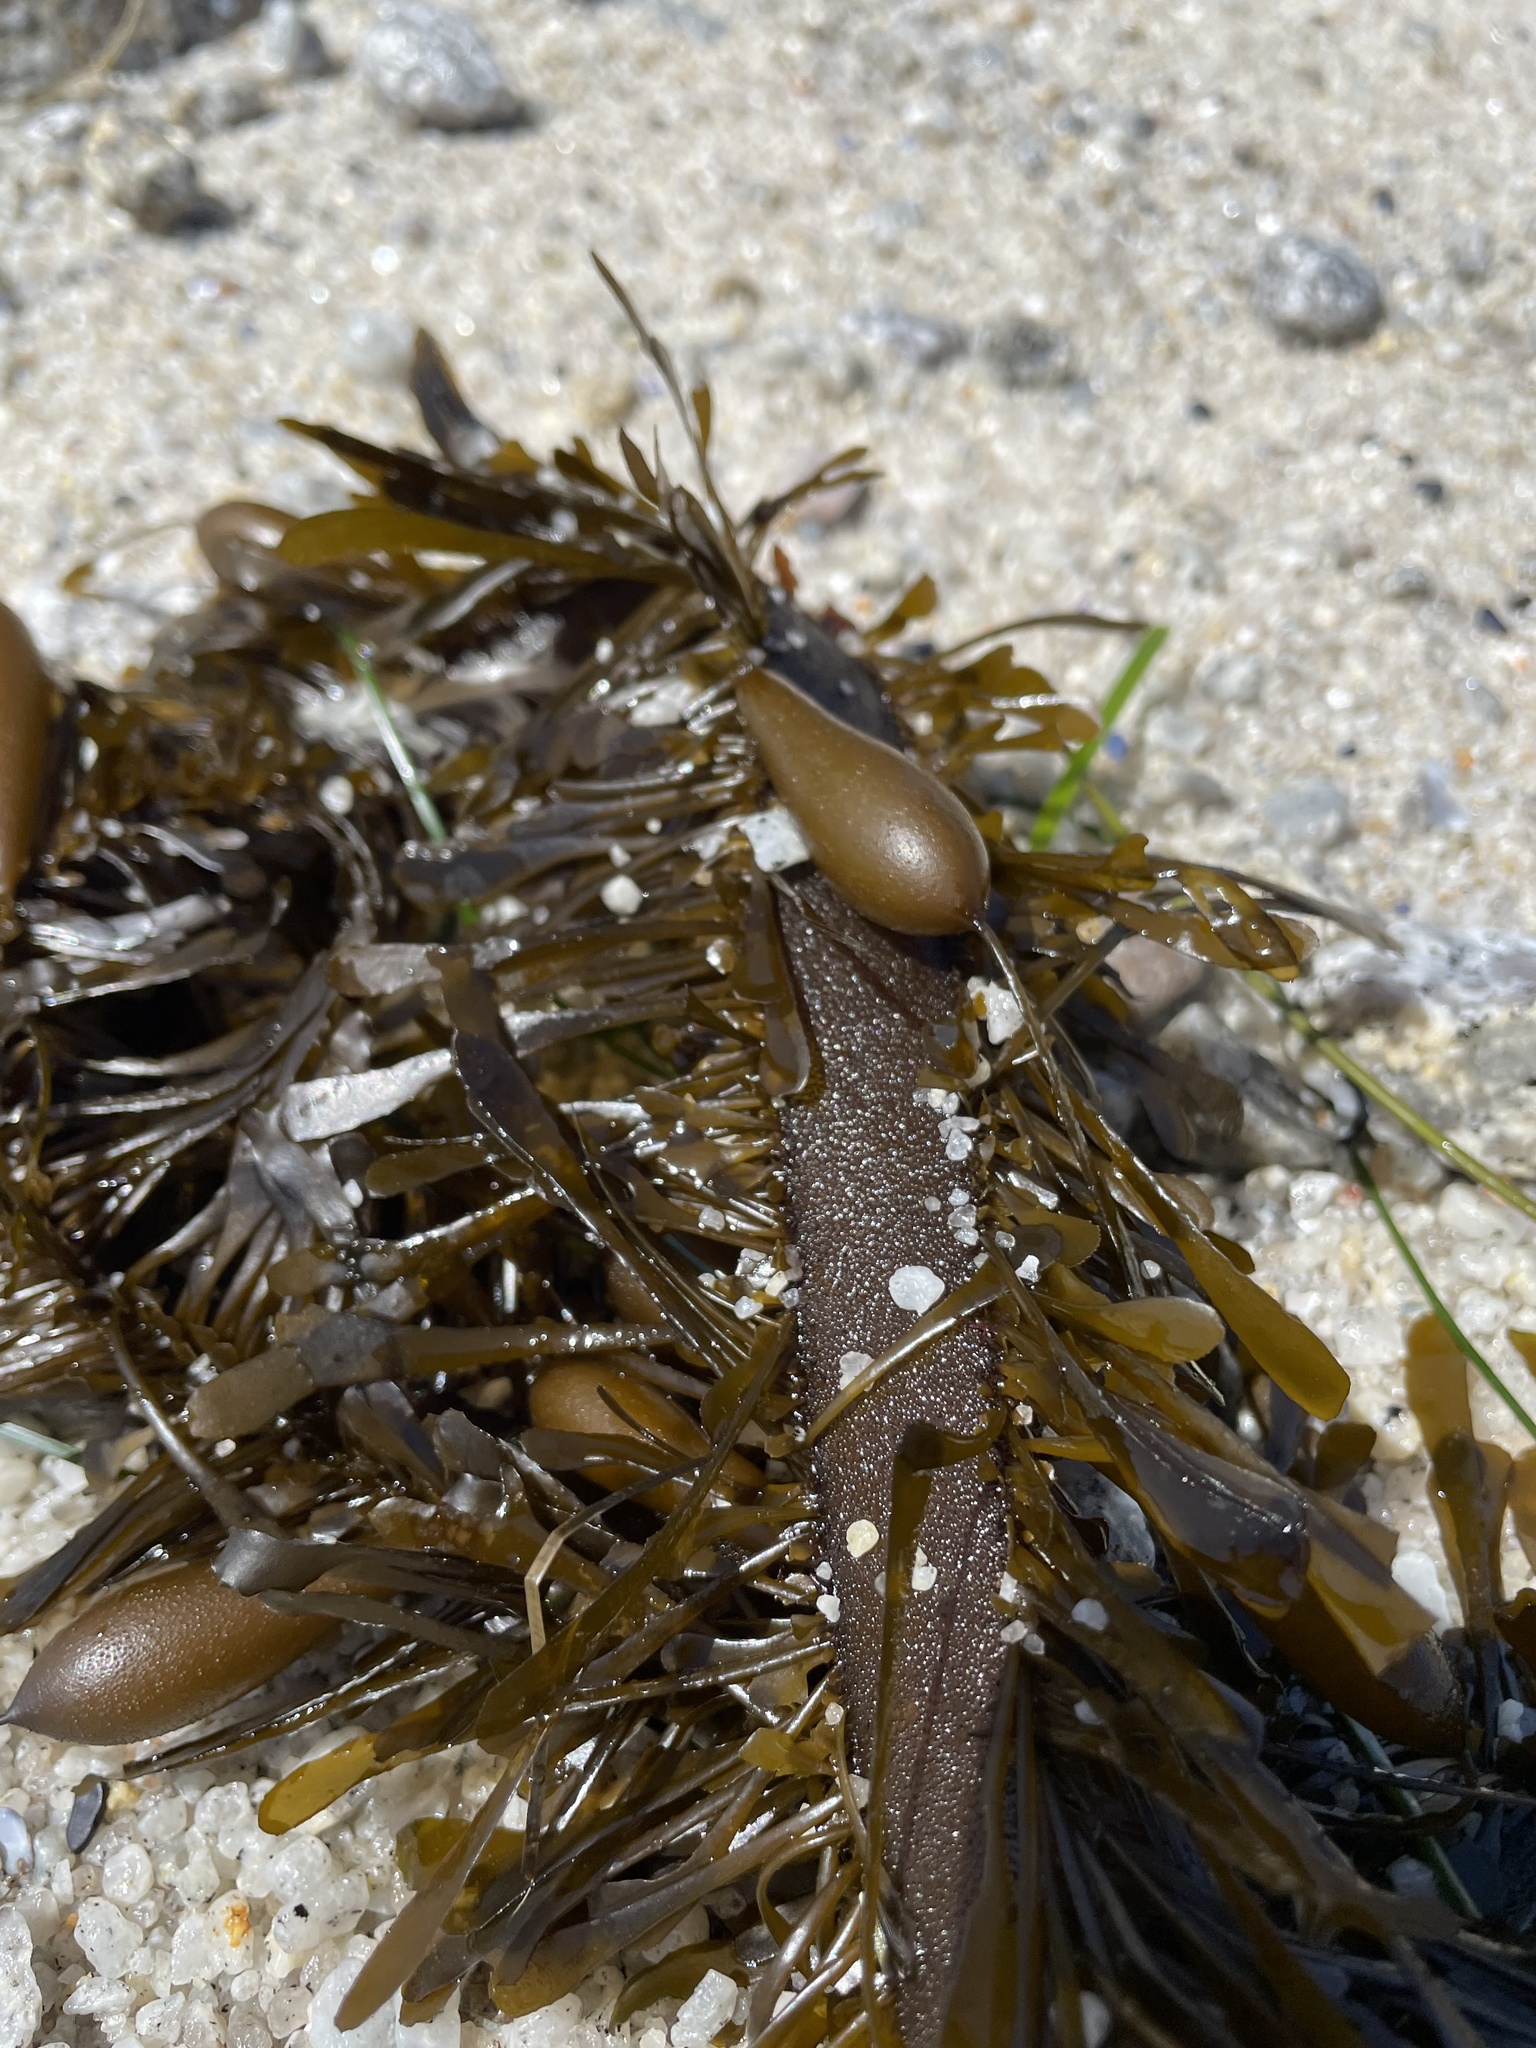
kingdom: Chromista
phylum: Ochrophyta
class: Phaeophyceae
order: Laminariales
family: Lessoniaceae
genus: Egregia
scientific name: Egregia menziesii
